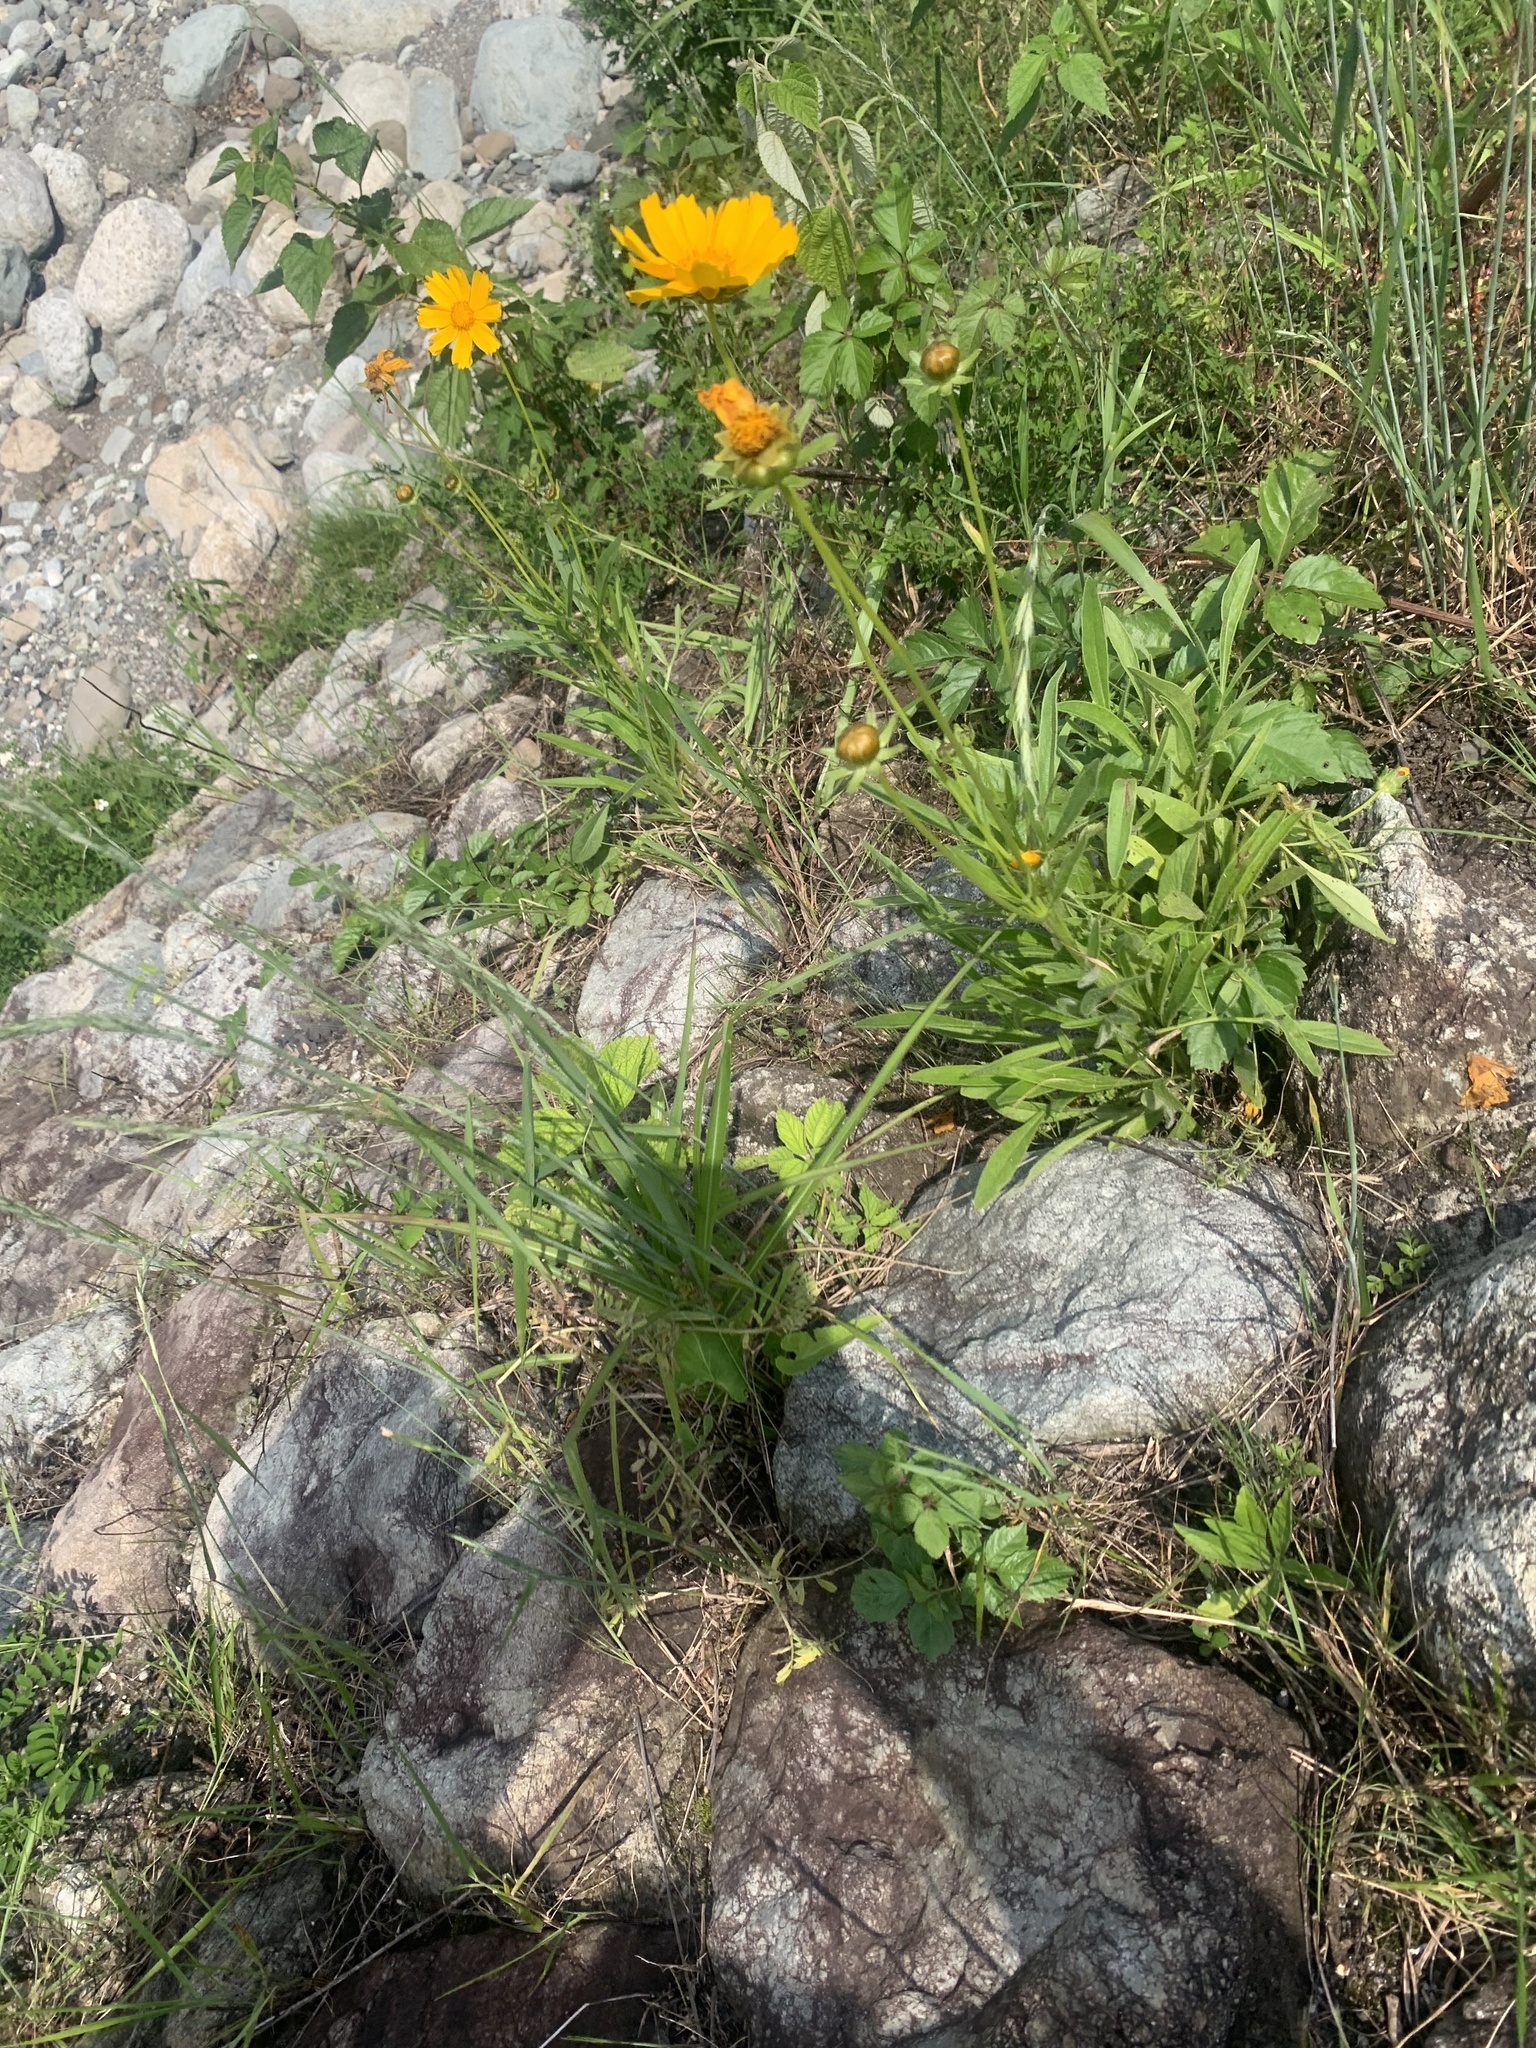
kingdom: Plantae
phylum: Tracheophyta
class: Magnoliopsida
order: Asterales
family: Asteraceae
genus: Coreopsis
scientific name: Coreopsis lanceolata
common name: Garden coreopsis
